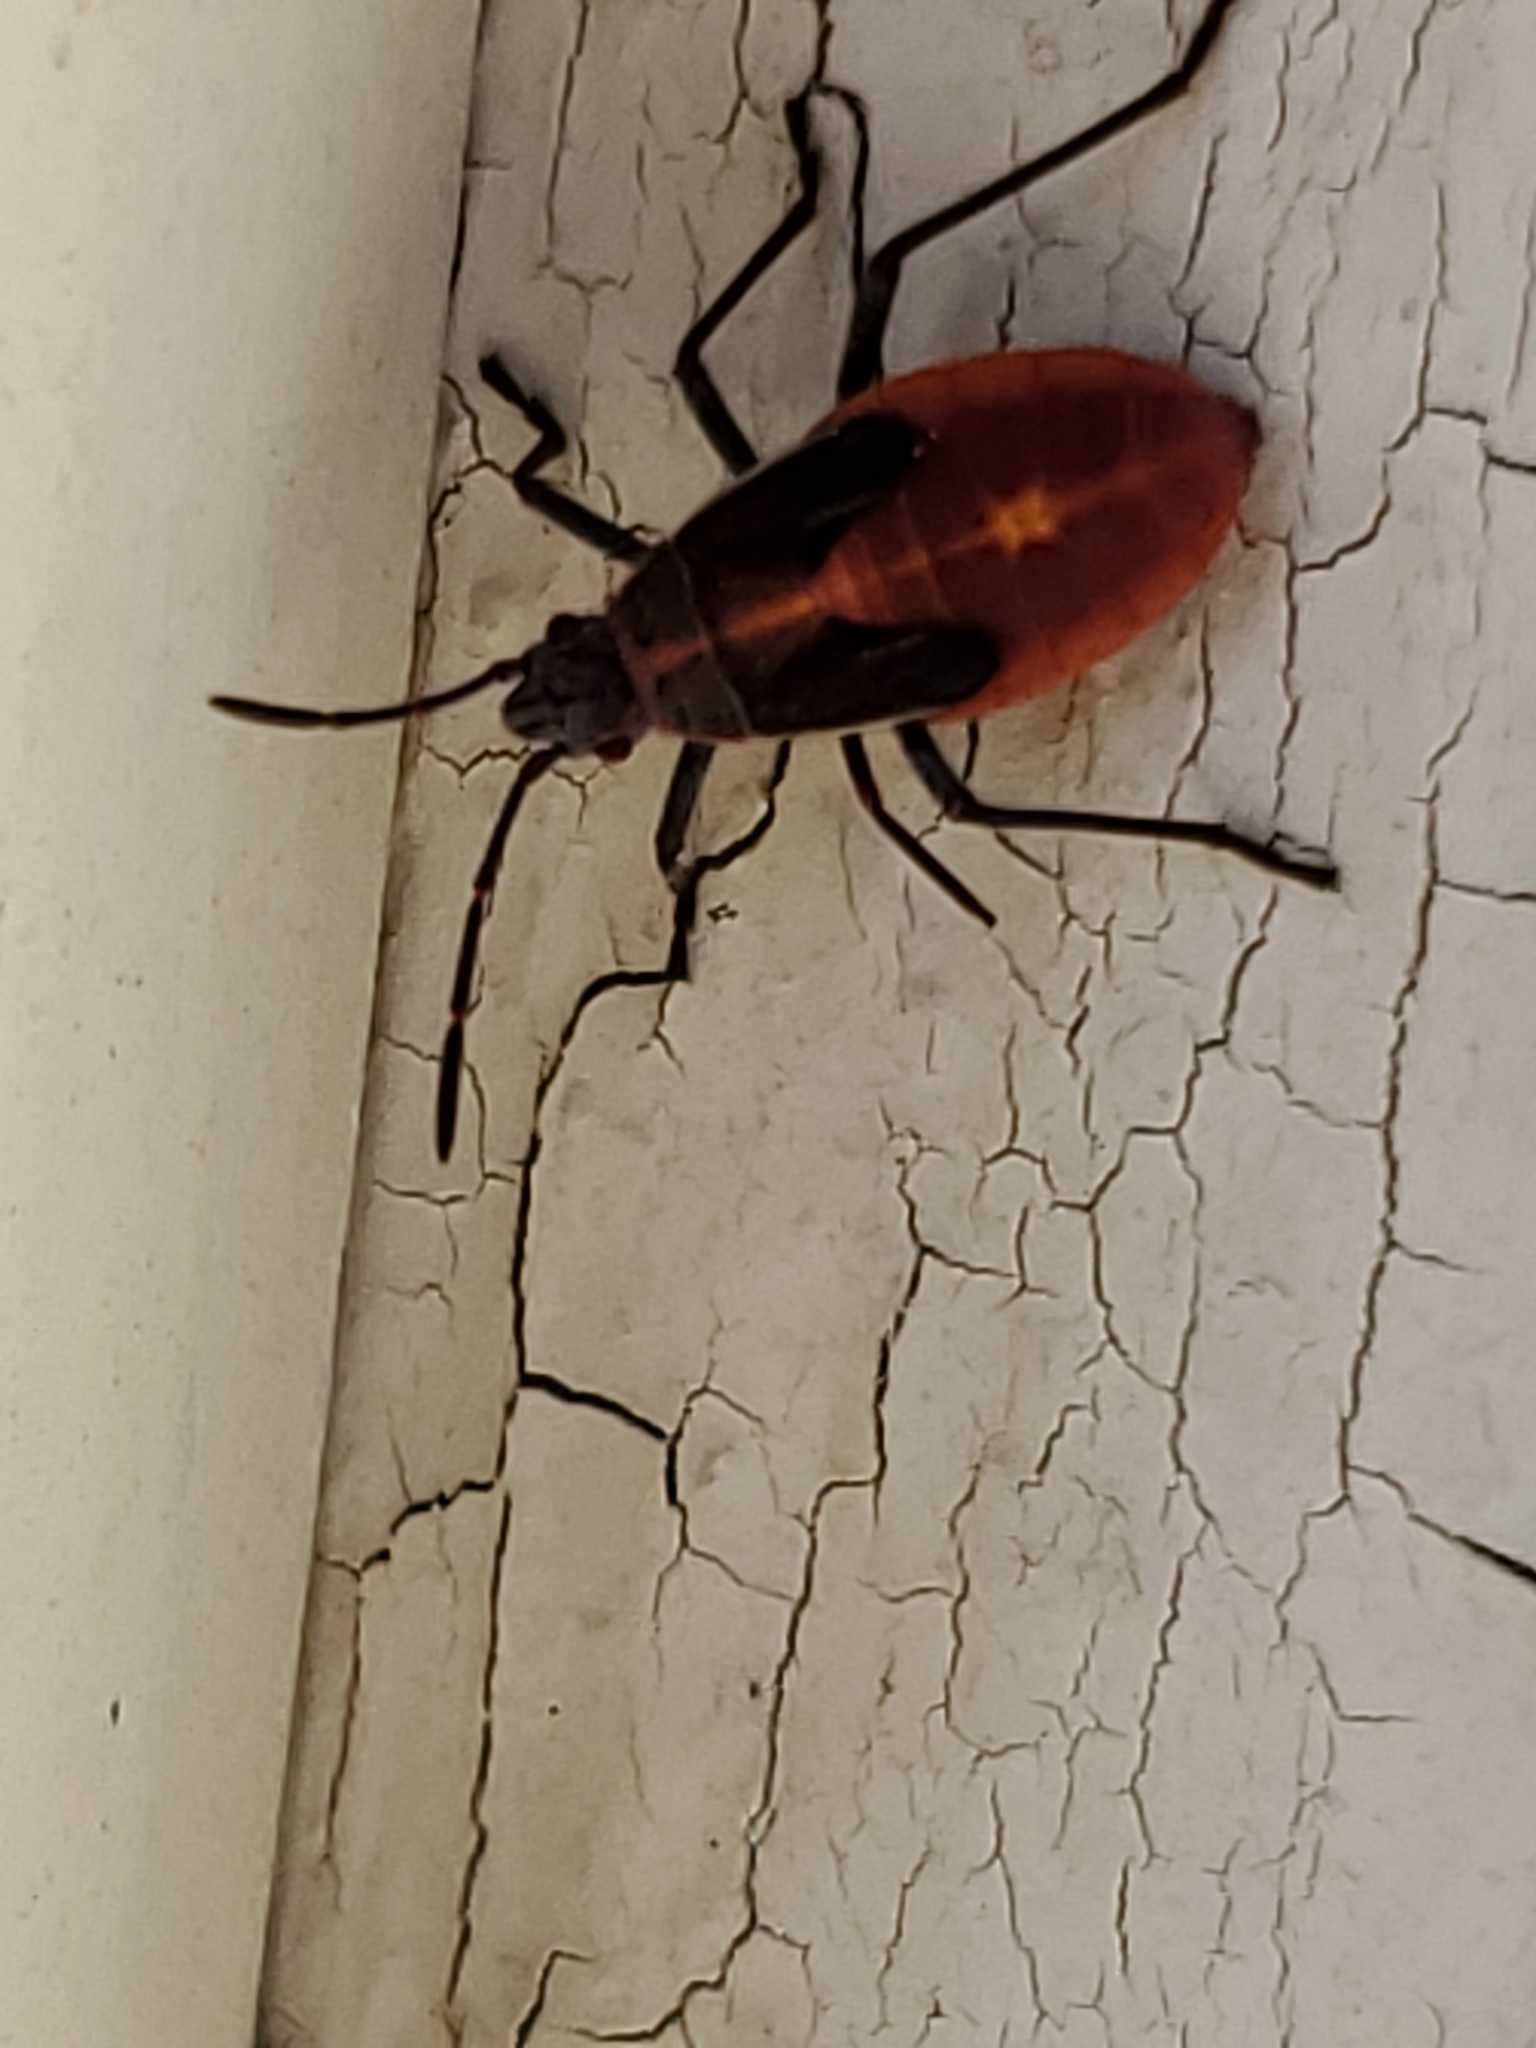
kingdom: Animalia
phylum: Arthropoda
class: Insecta
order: Hemiptera
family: Rhopalidae
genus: Boisea
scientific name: Boisea trivittata
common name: Boxelder bug
